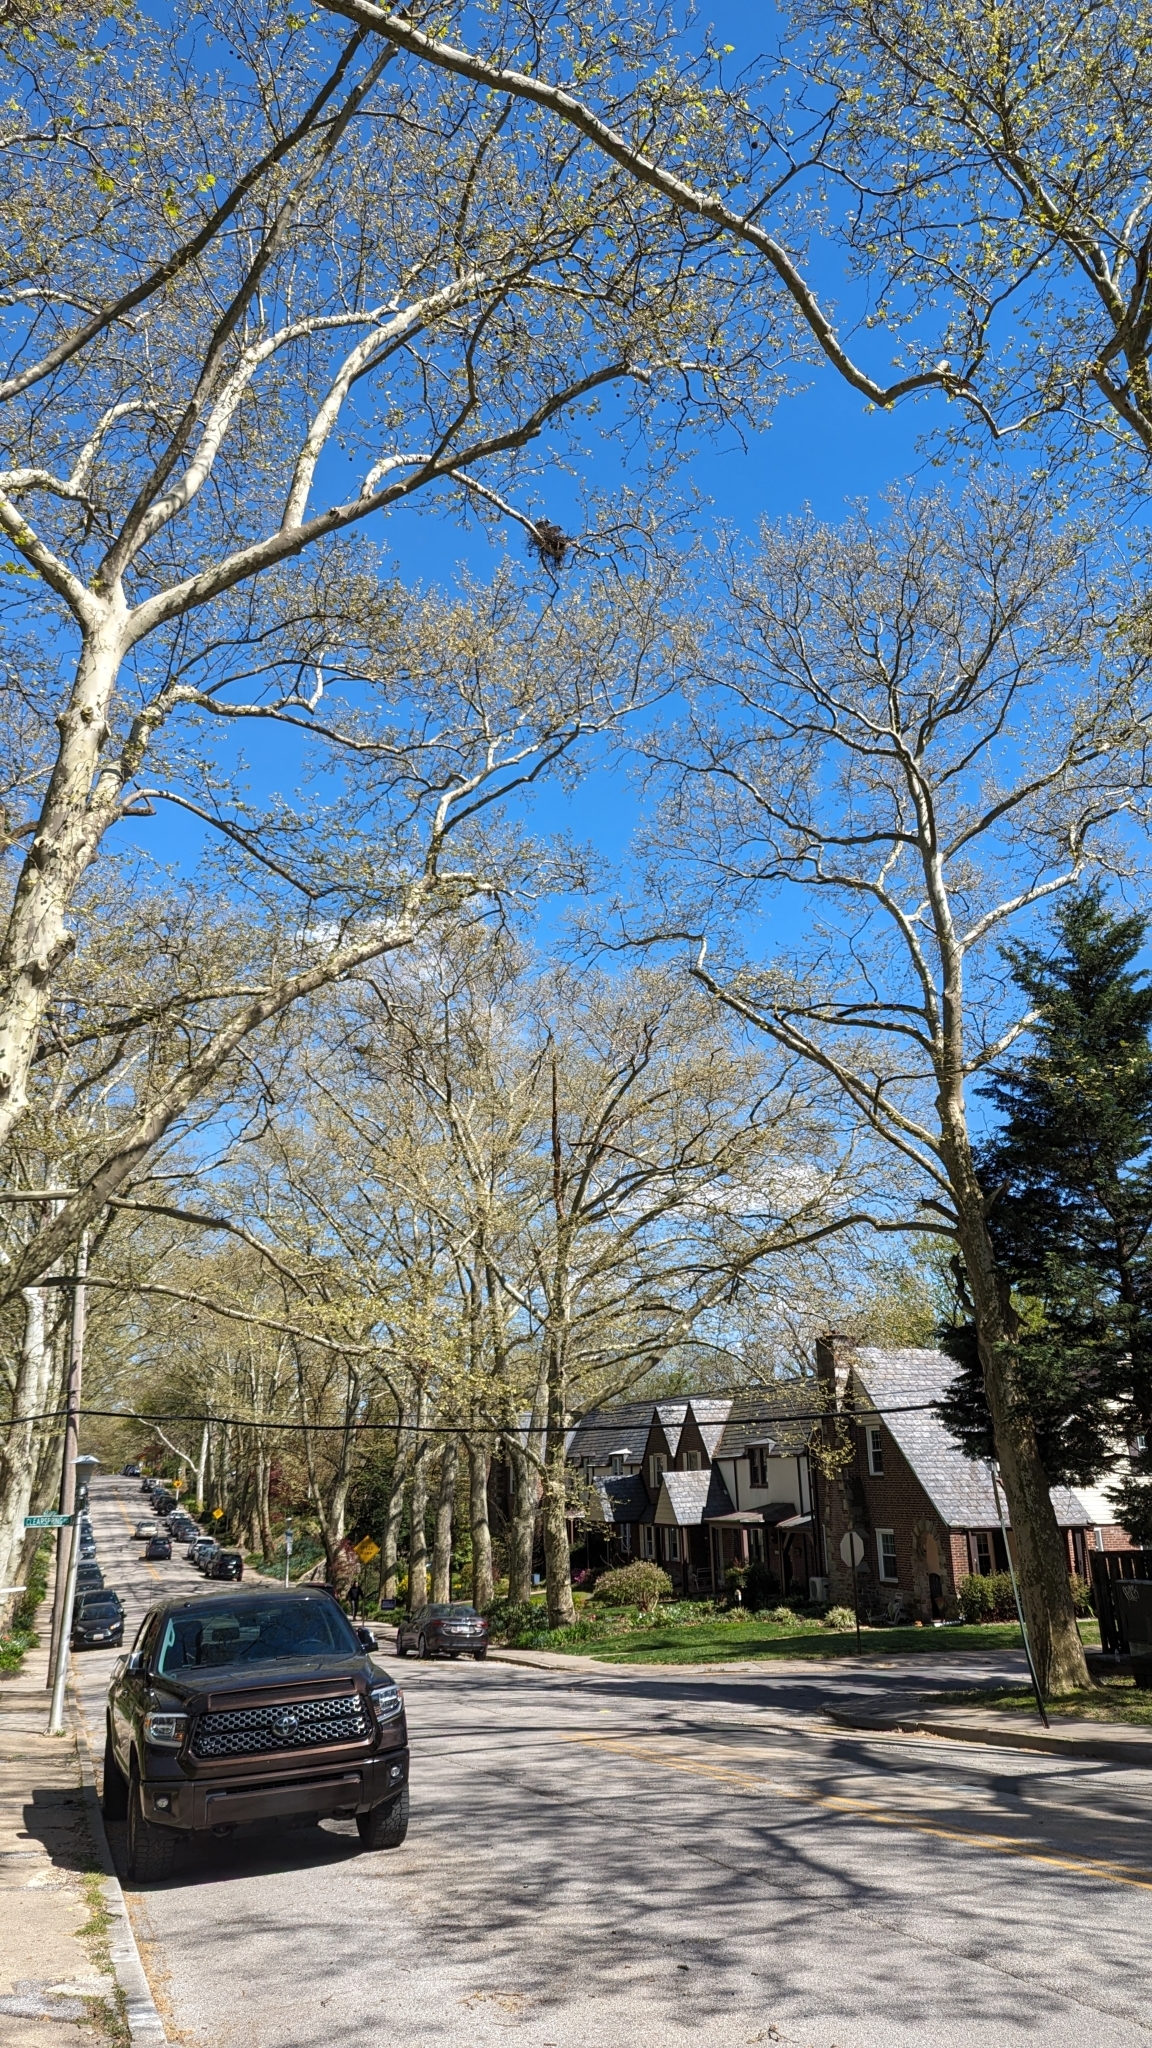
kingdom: Animalia
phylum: Chordata
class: Aves
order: Pelecaniformes
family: Ardeidae
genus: Nyctanassa
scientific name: Nyctanassa violacea
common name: Yellow-crowned night heron
